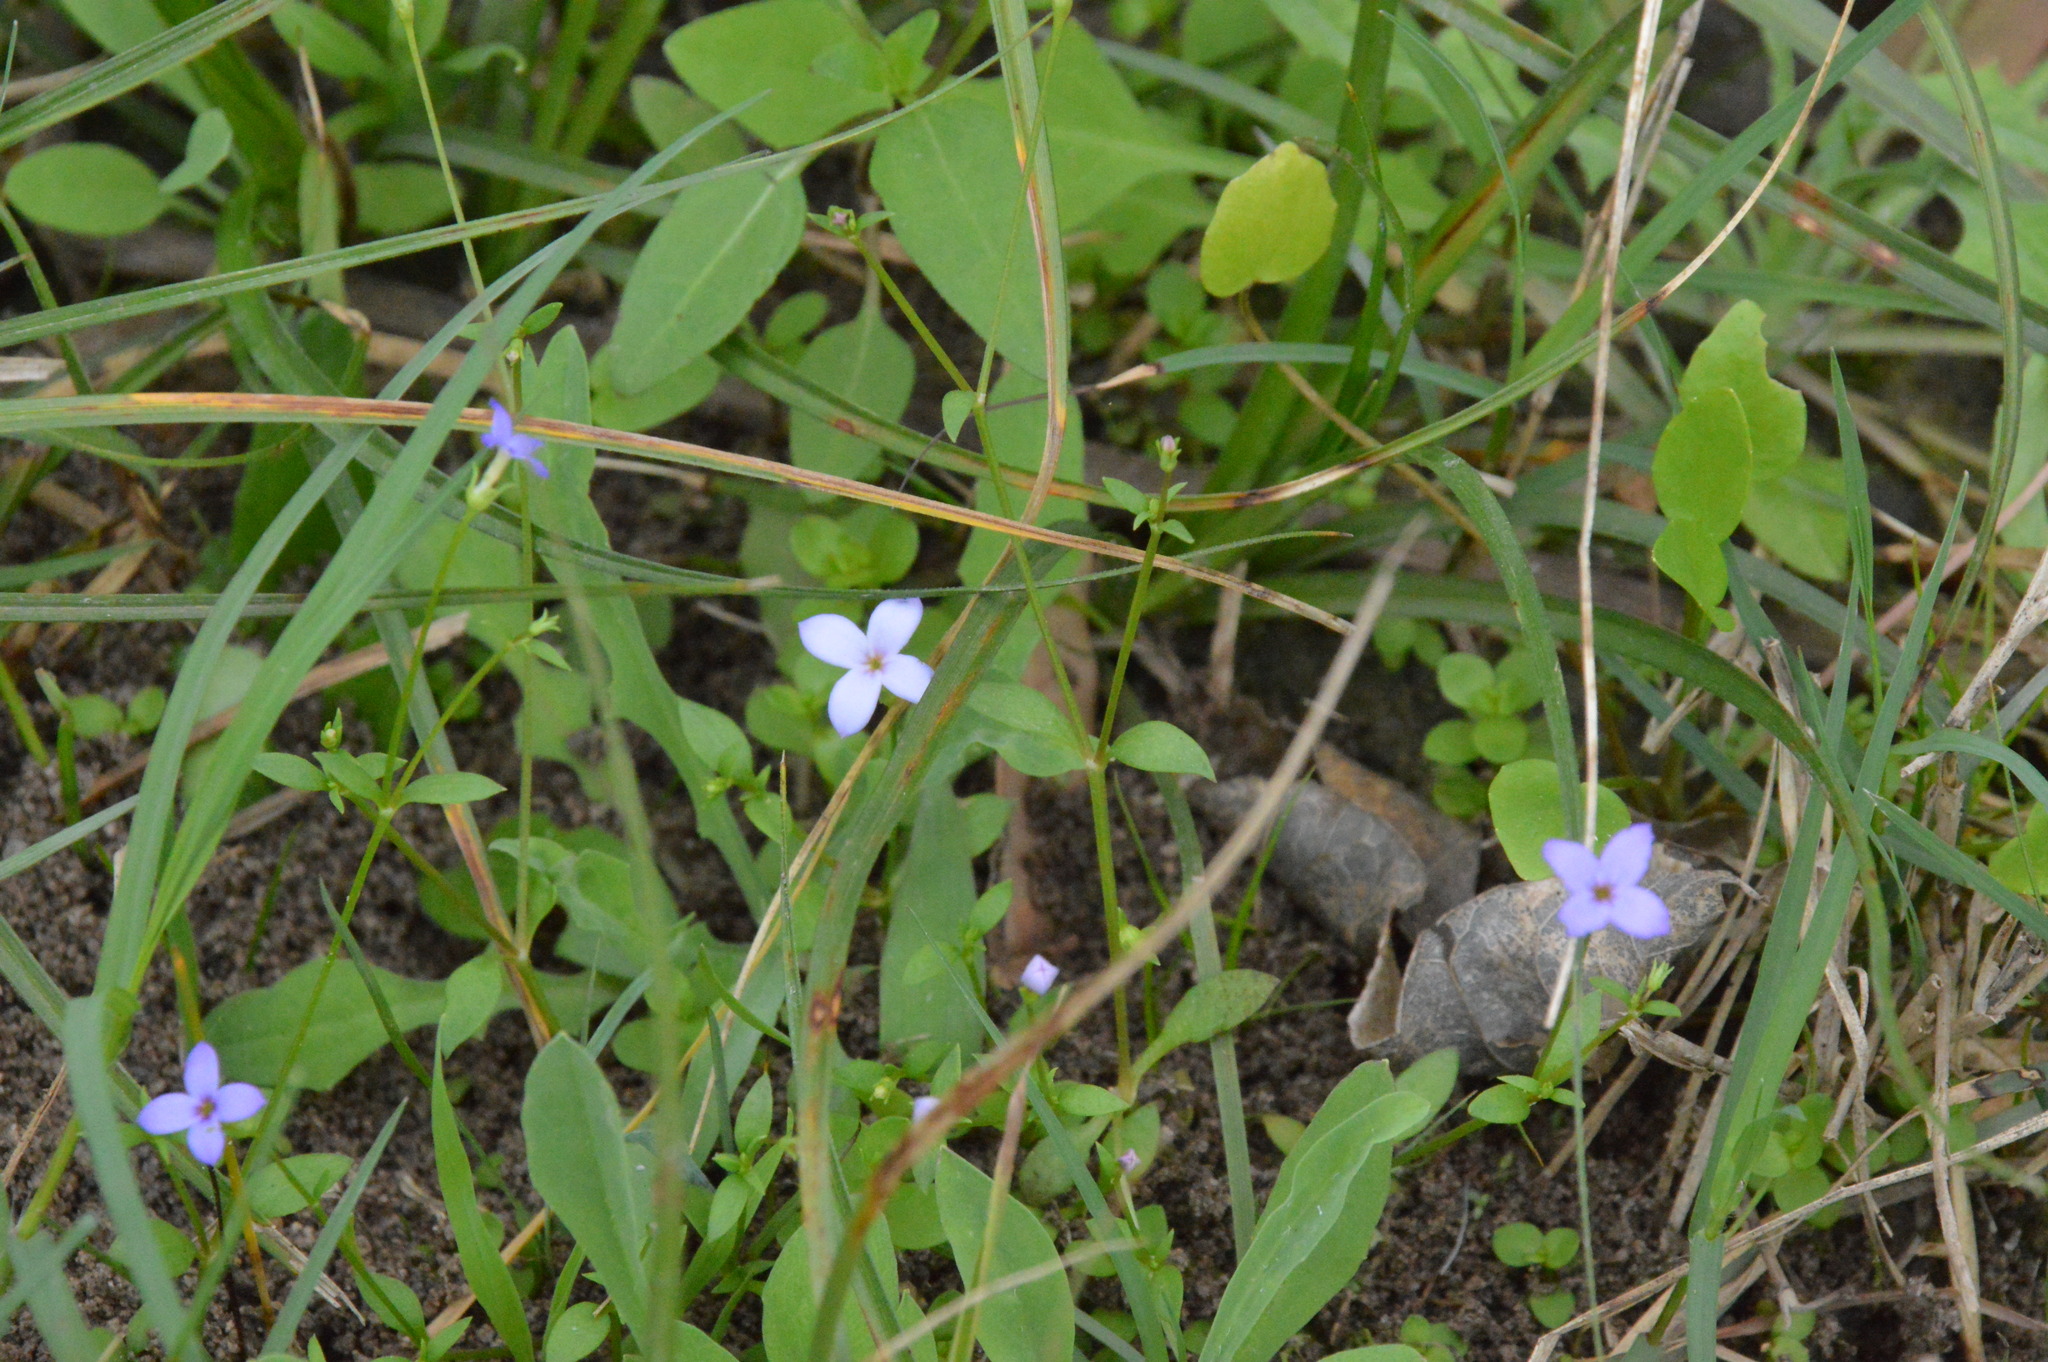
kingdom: Plantae
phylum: Tracheophyta
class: Magnoliopsida
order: Gentianales
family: Rubiaceae
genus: Houstonia
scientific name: Houstonia pusilla
